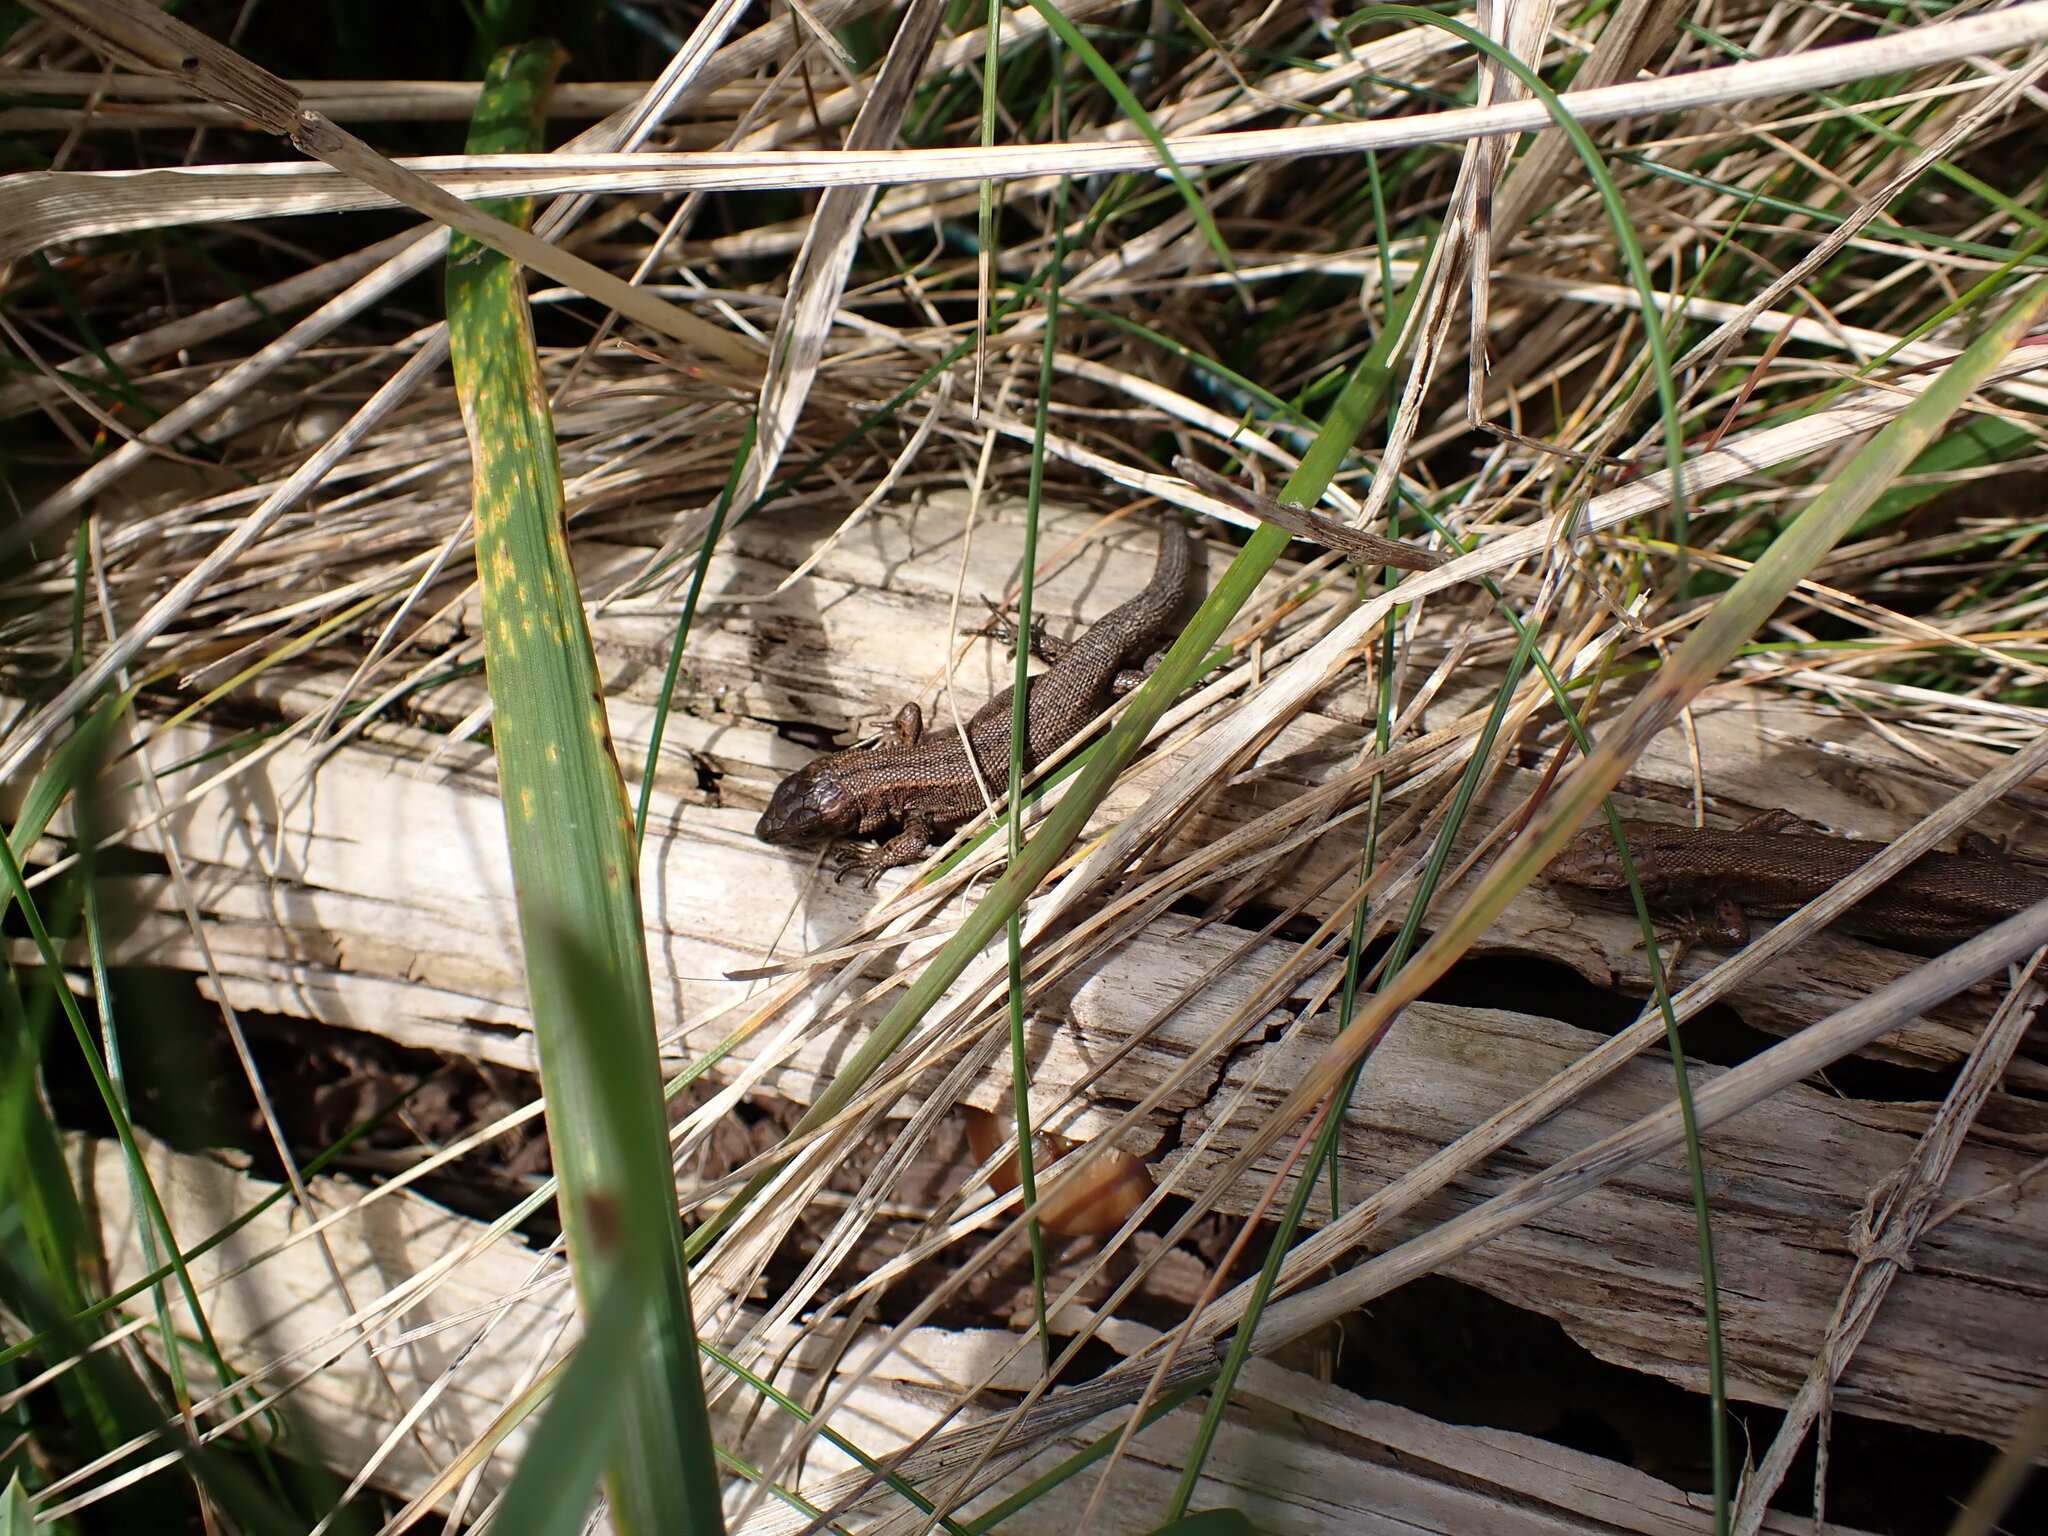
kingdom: Animalia
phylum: Chordata
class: Squamata
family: Lacertidae
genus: Zootoca
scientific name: Zootoca vivipara
